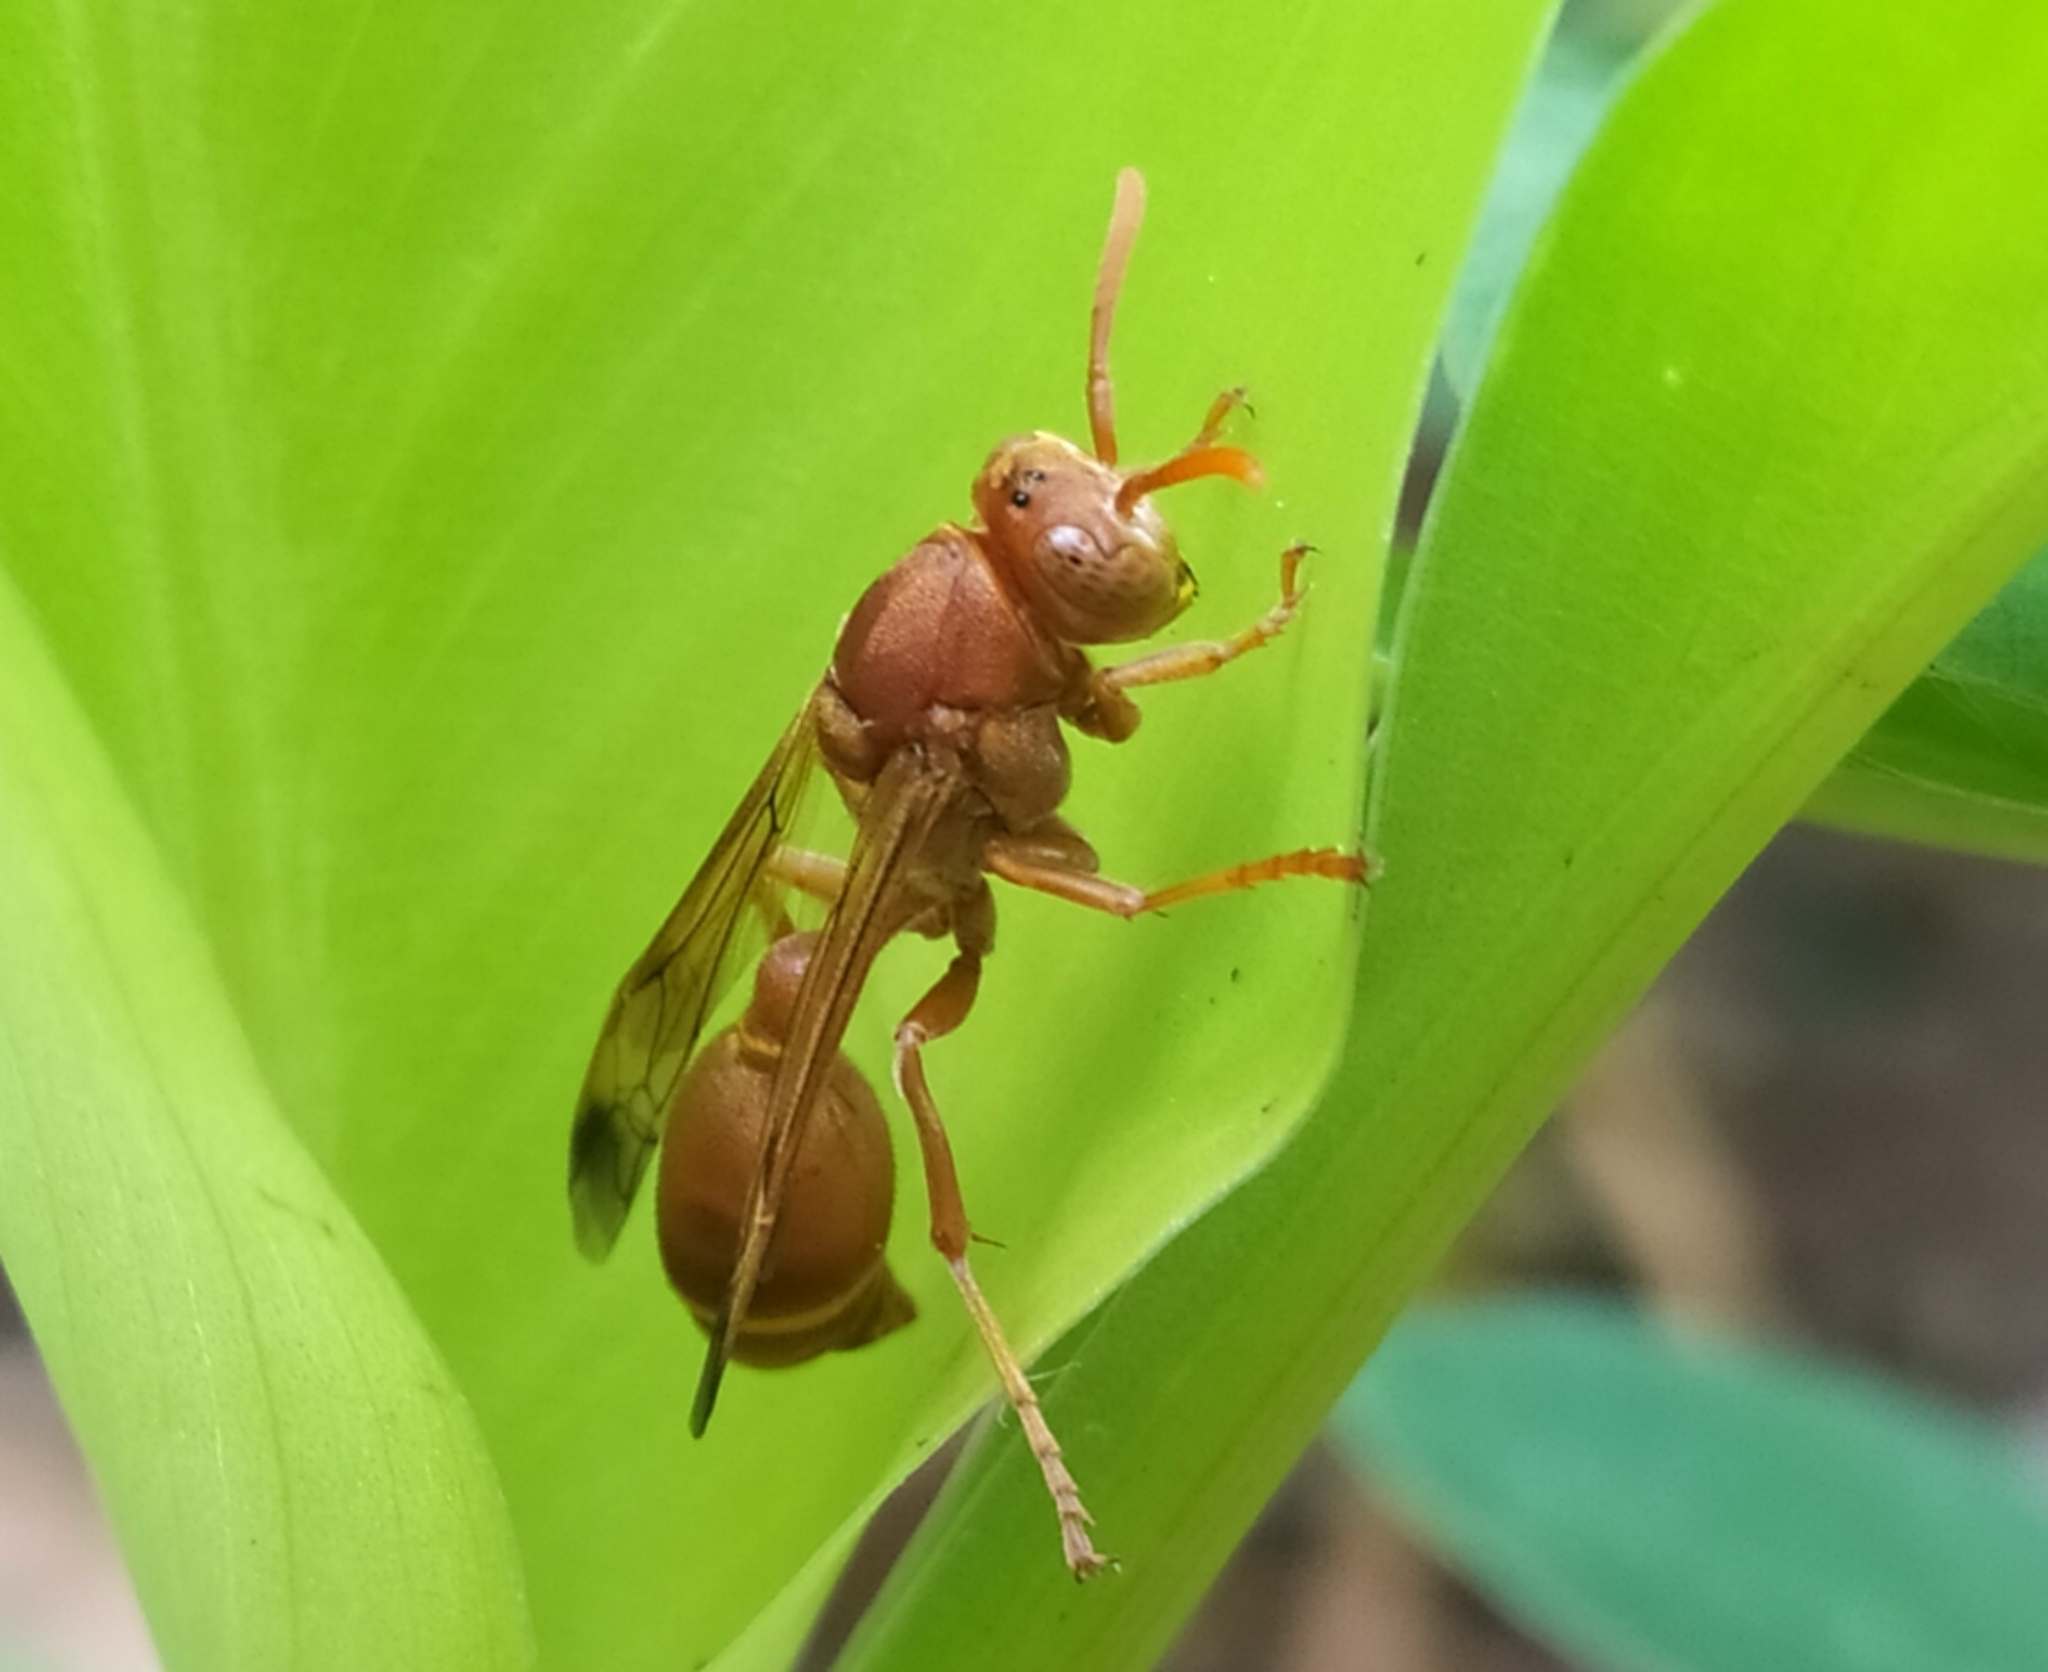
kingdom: Animalia
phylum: Arthropoda
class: Insecta
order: Hymenoptera
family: Vespidae
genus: Ropalidia
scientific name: Ropalidia marginata
